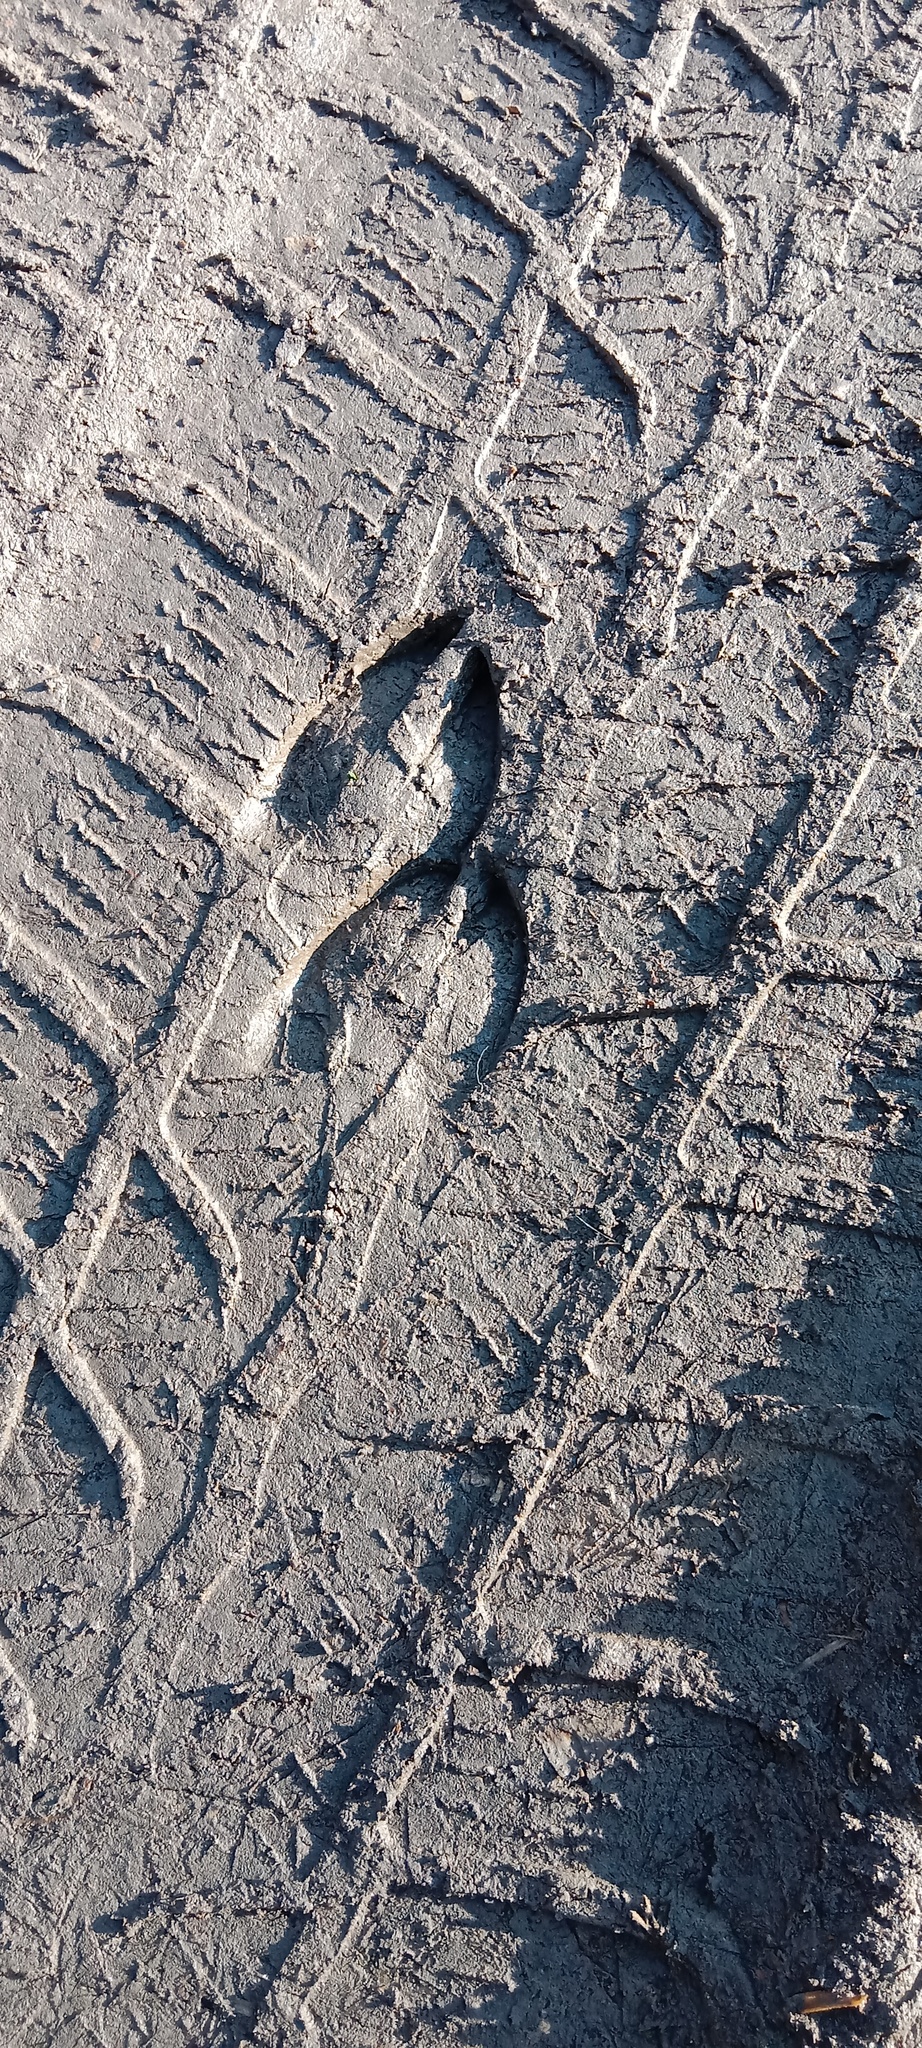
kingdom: Animalia
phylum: Chordata
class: Mammalia
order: Artiodactyla
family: Cervidae
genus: Capreolus
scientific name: Capreolus capreolus
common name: Western roe deer
